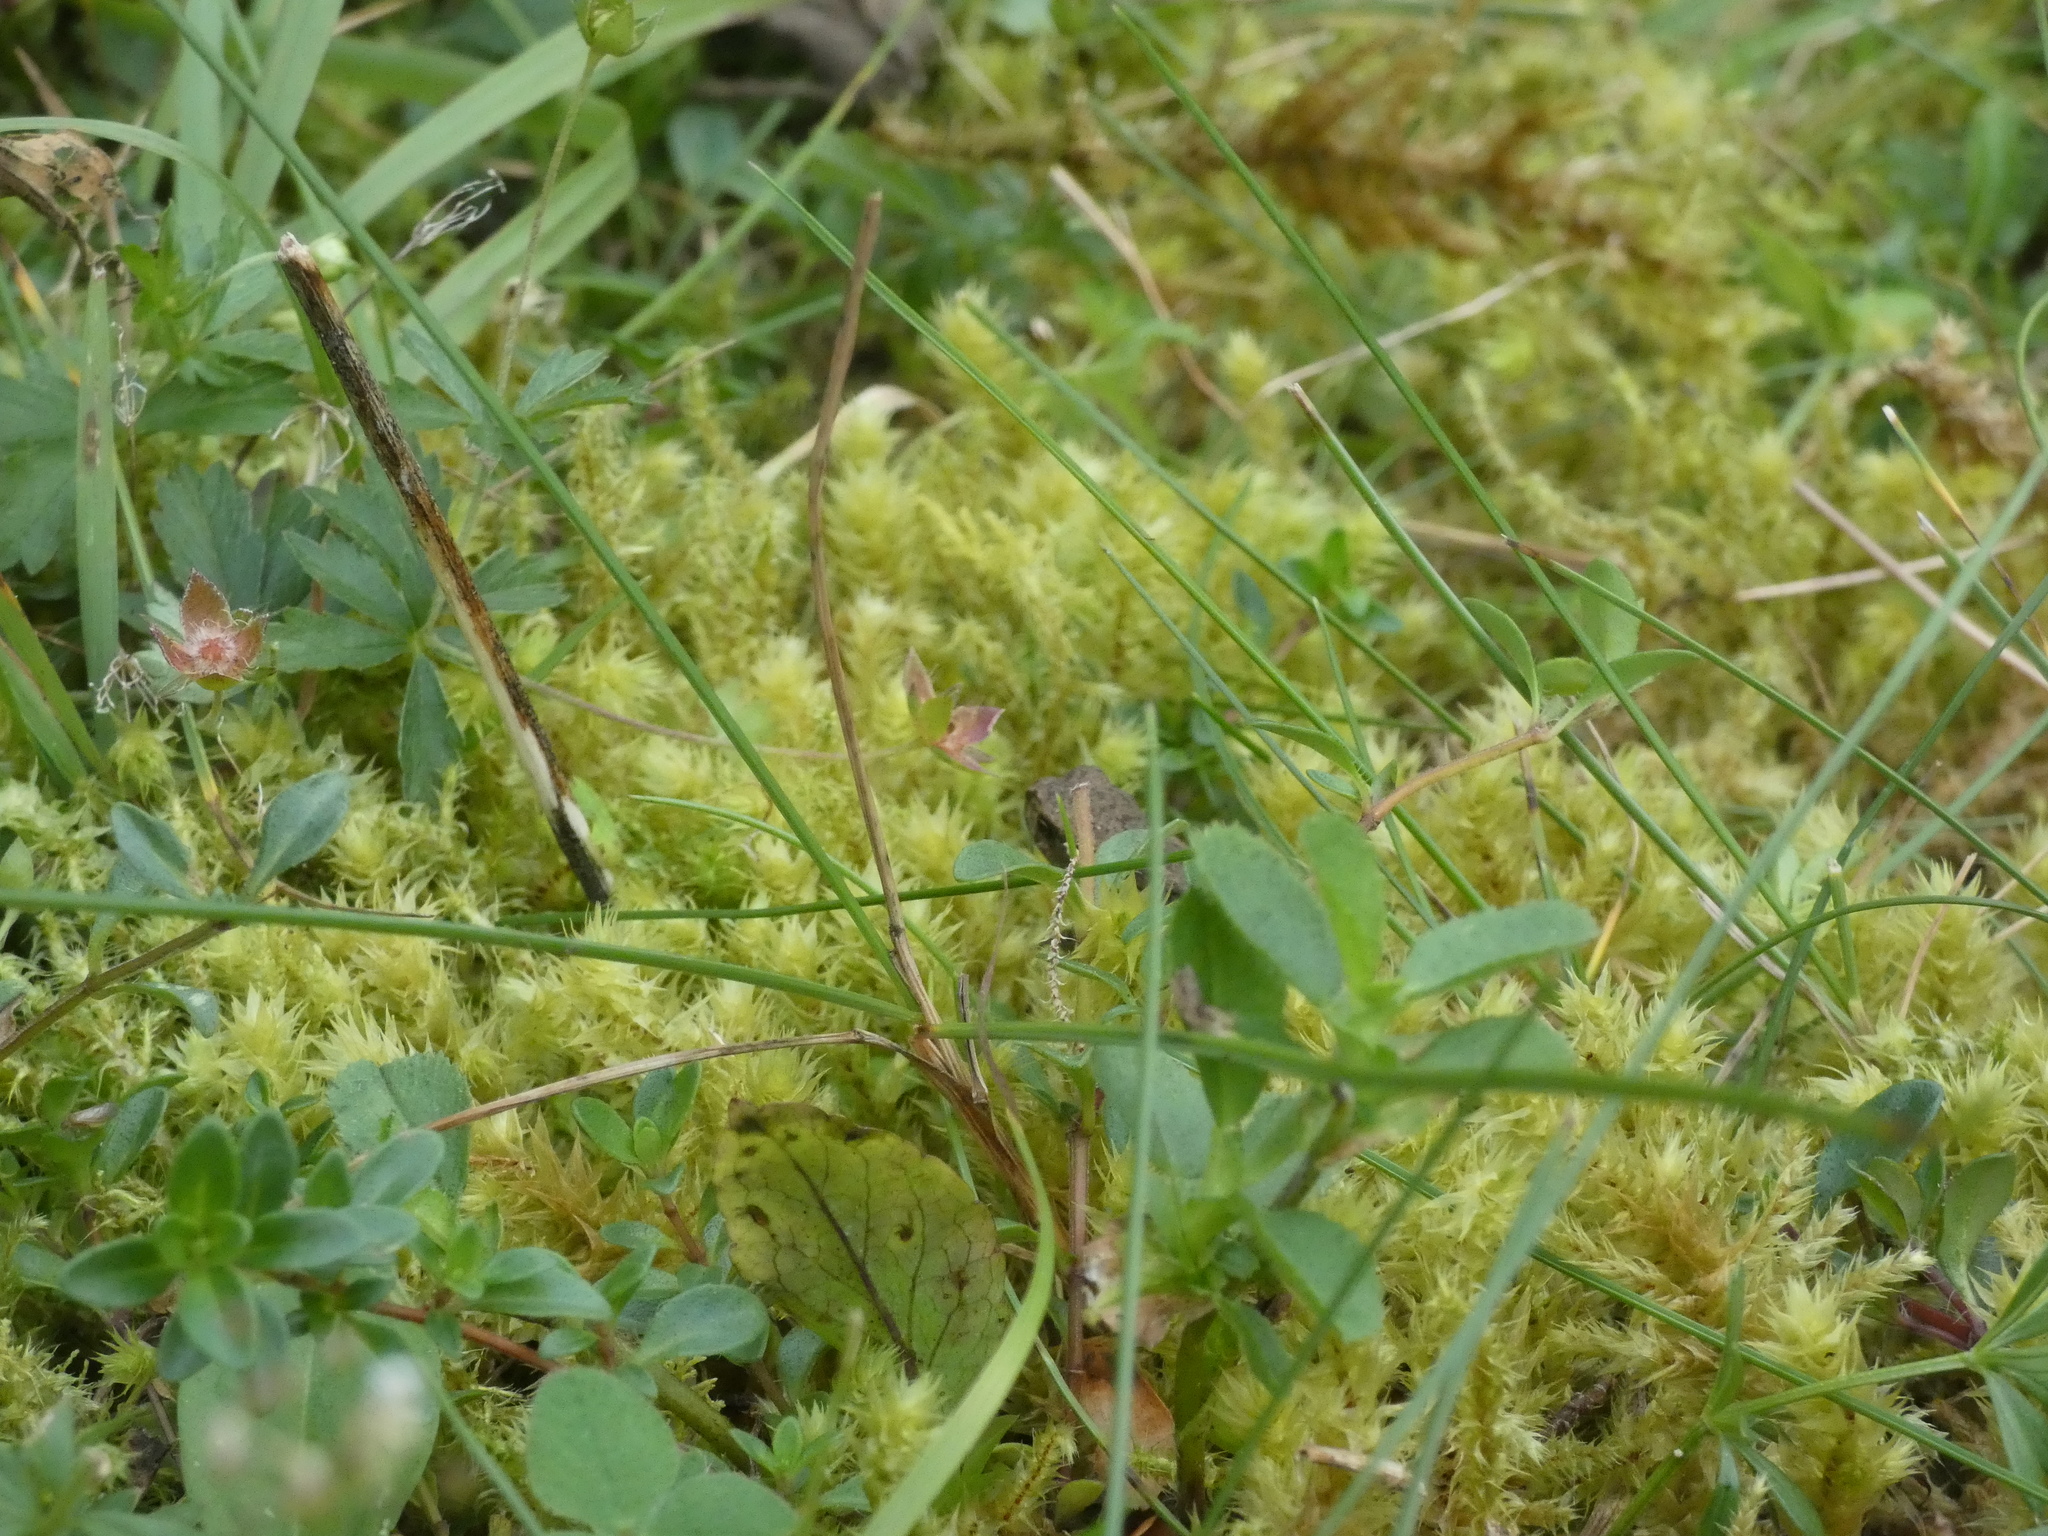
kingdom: Animalia
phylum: Chordata
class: Amphibia
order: Anura
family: Bufonidae
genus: Bufo
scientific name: Bufo bufo
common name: Common toad
